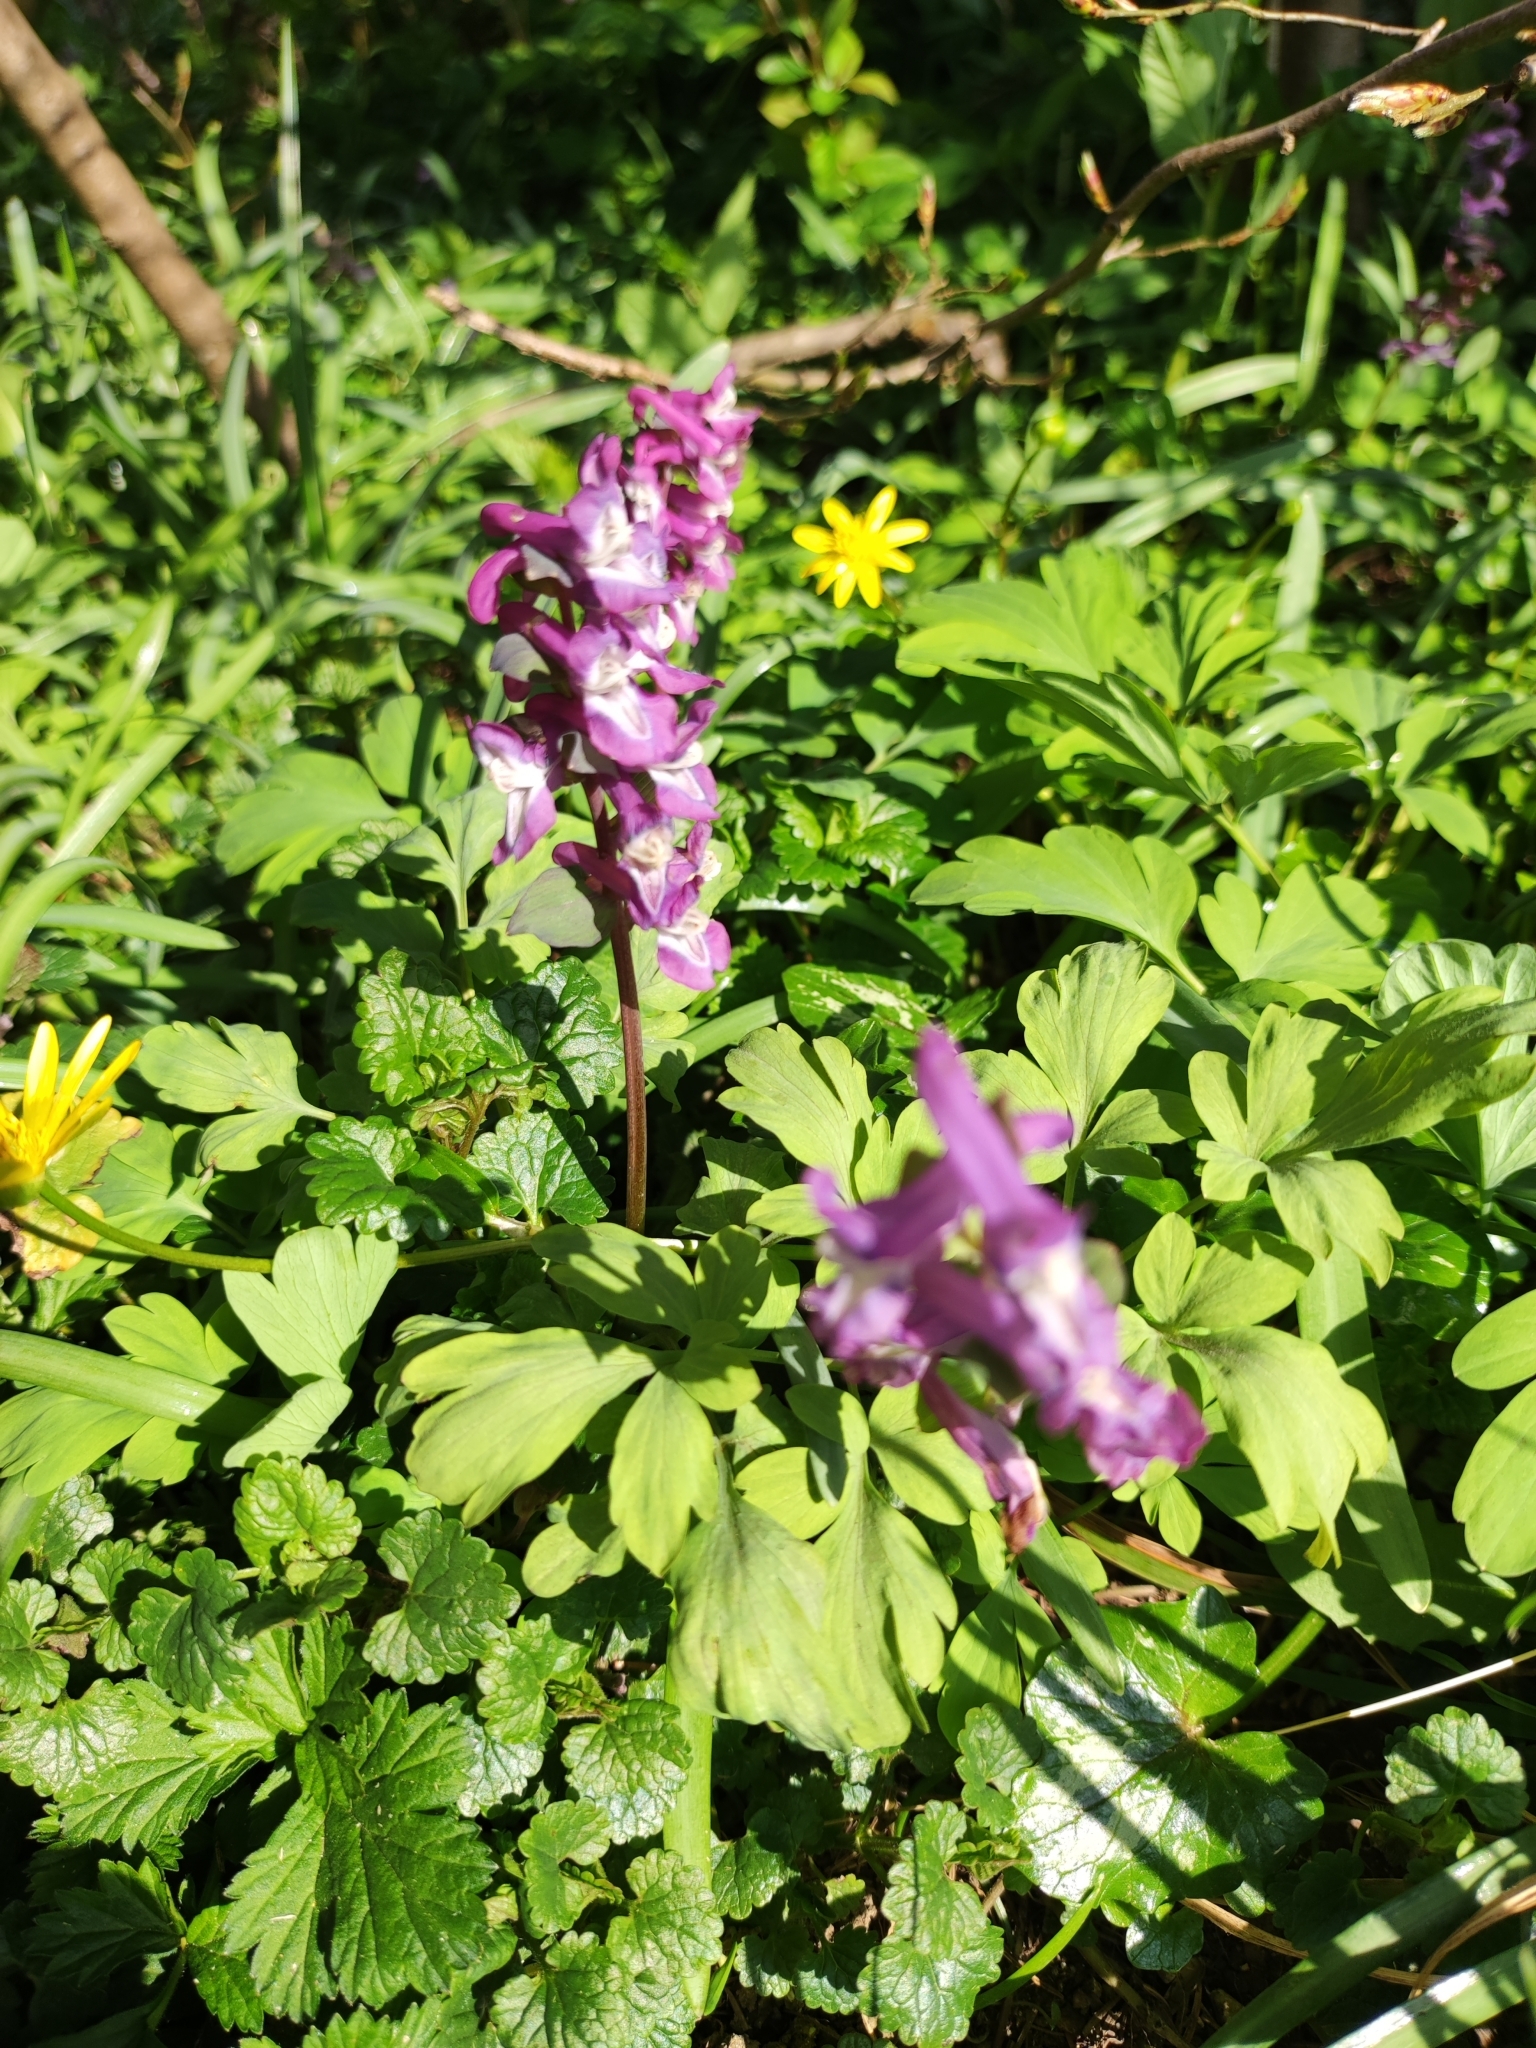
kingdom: Plantae
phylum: Tracheophyta
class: Magnoliopsida
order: Ranunculales
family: Papaveraceae
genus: Corydalis
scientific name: Corydalis cava
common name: Hollowroot
